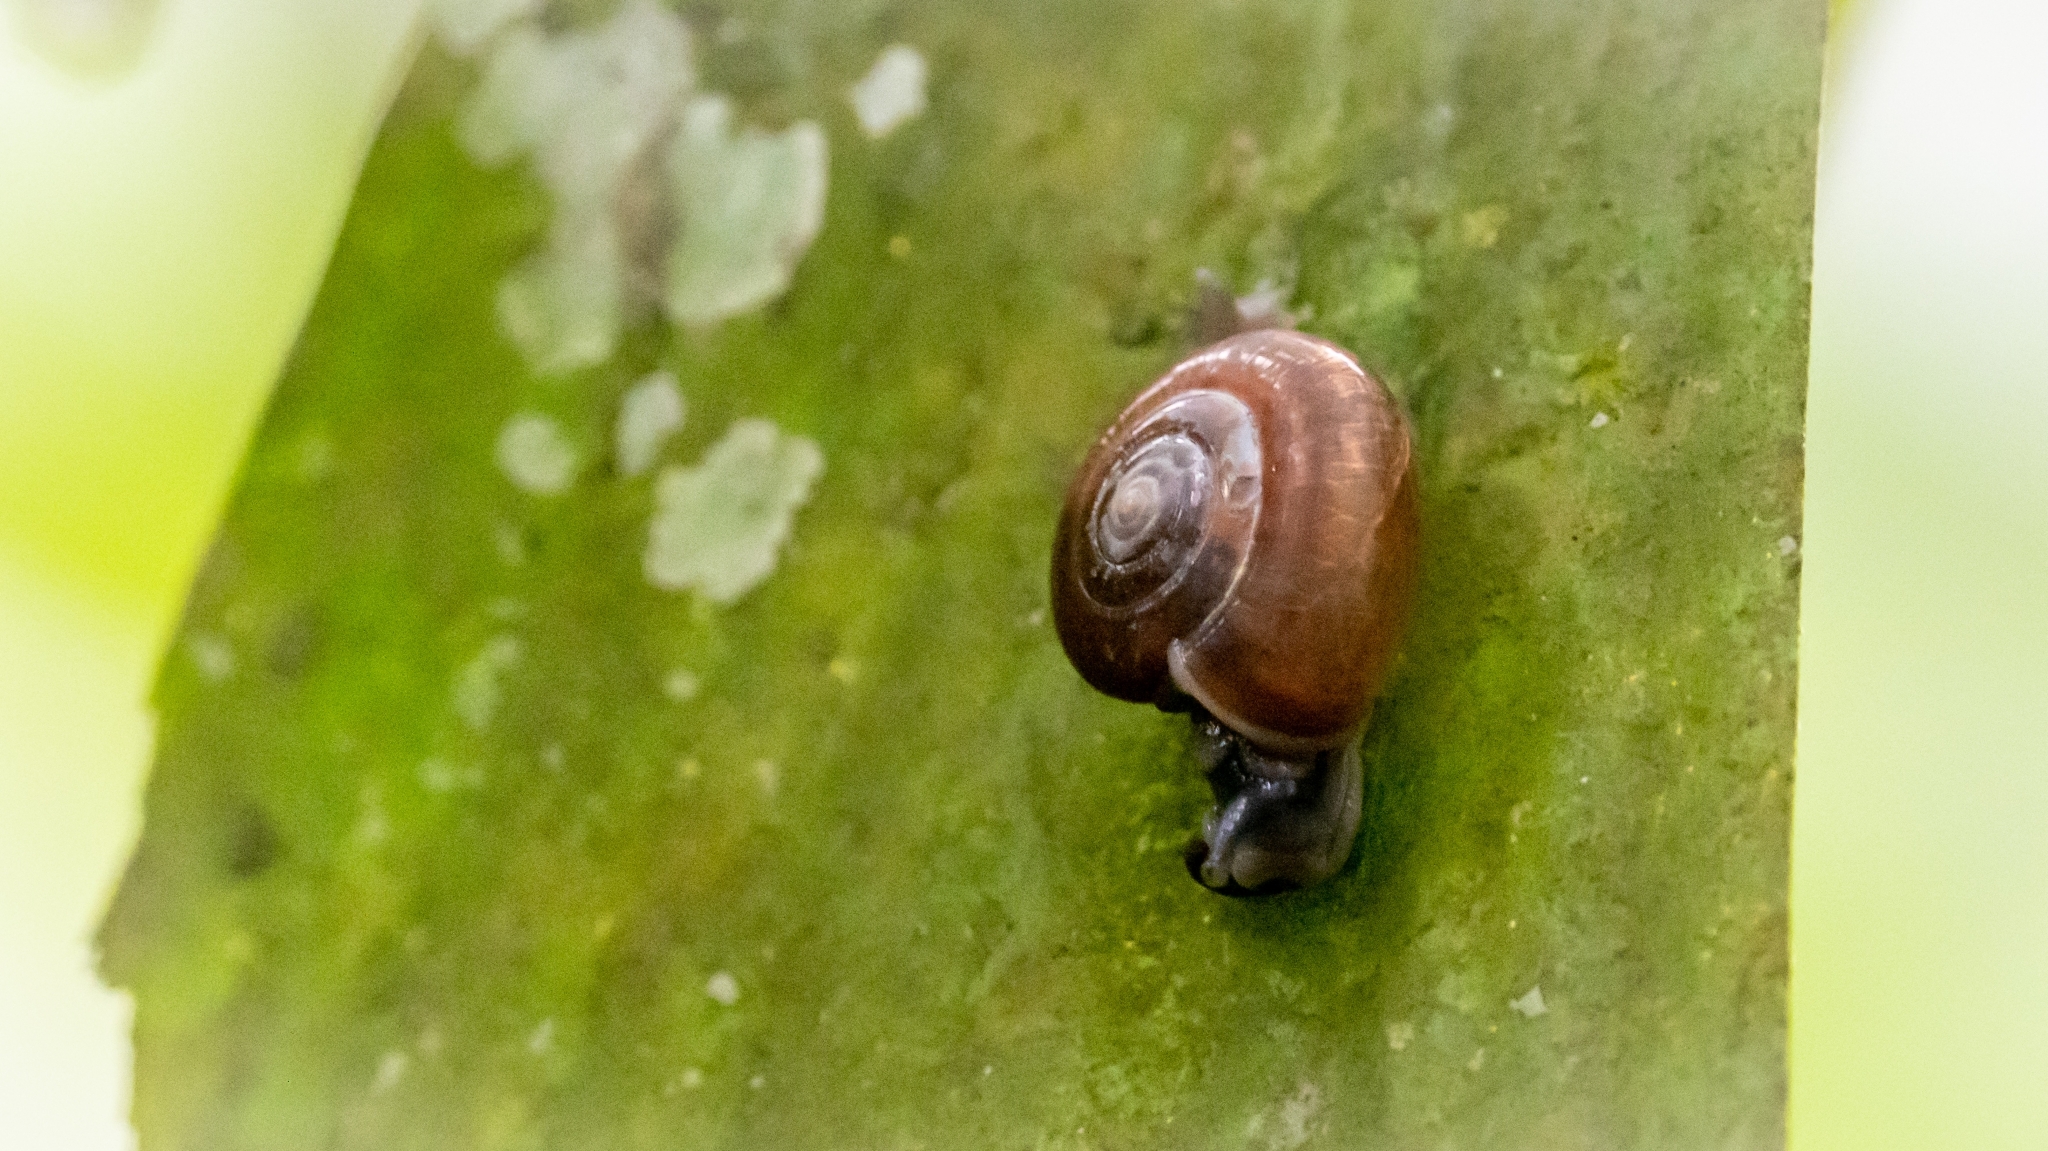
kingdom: Animalia
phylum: Mollusca
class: Gastropoda
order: Stylommatophora
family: Ariophantidae
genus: Sarika
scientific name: Sarika resplendens
